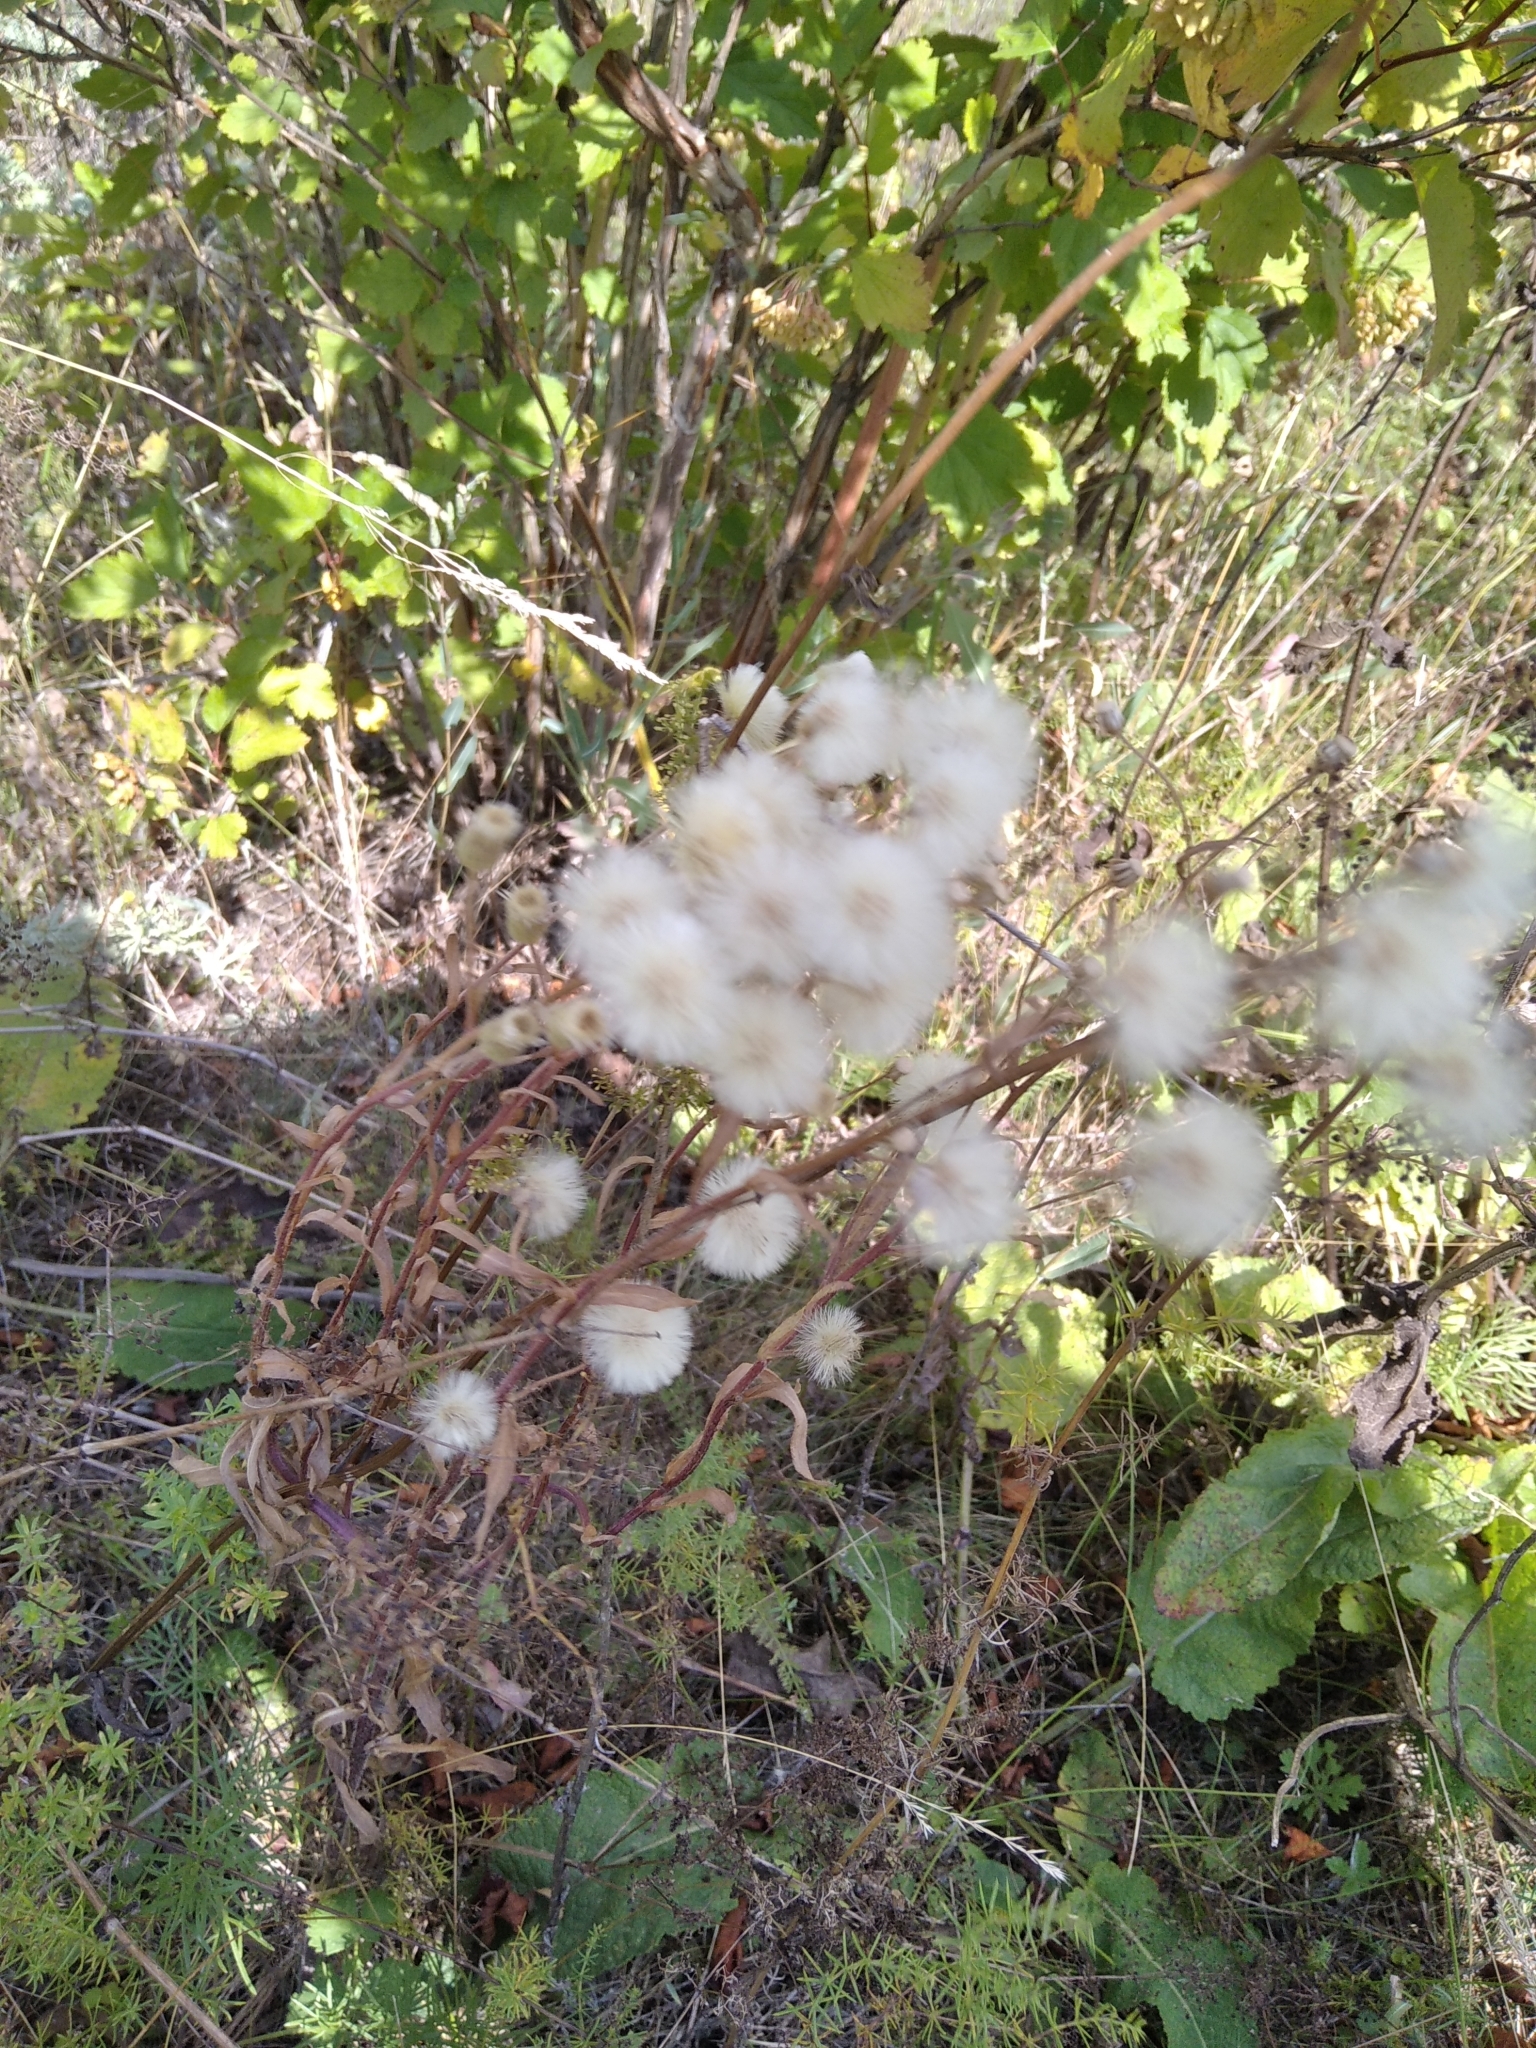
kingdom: Plantae
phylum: Tracheophyta
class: Magnoliopsida
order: Asterales
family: Asteraceae
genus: Erigeron
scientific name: Erigeron acris
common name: Blue fleabane
